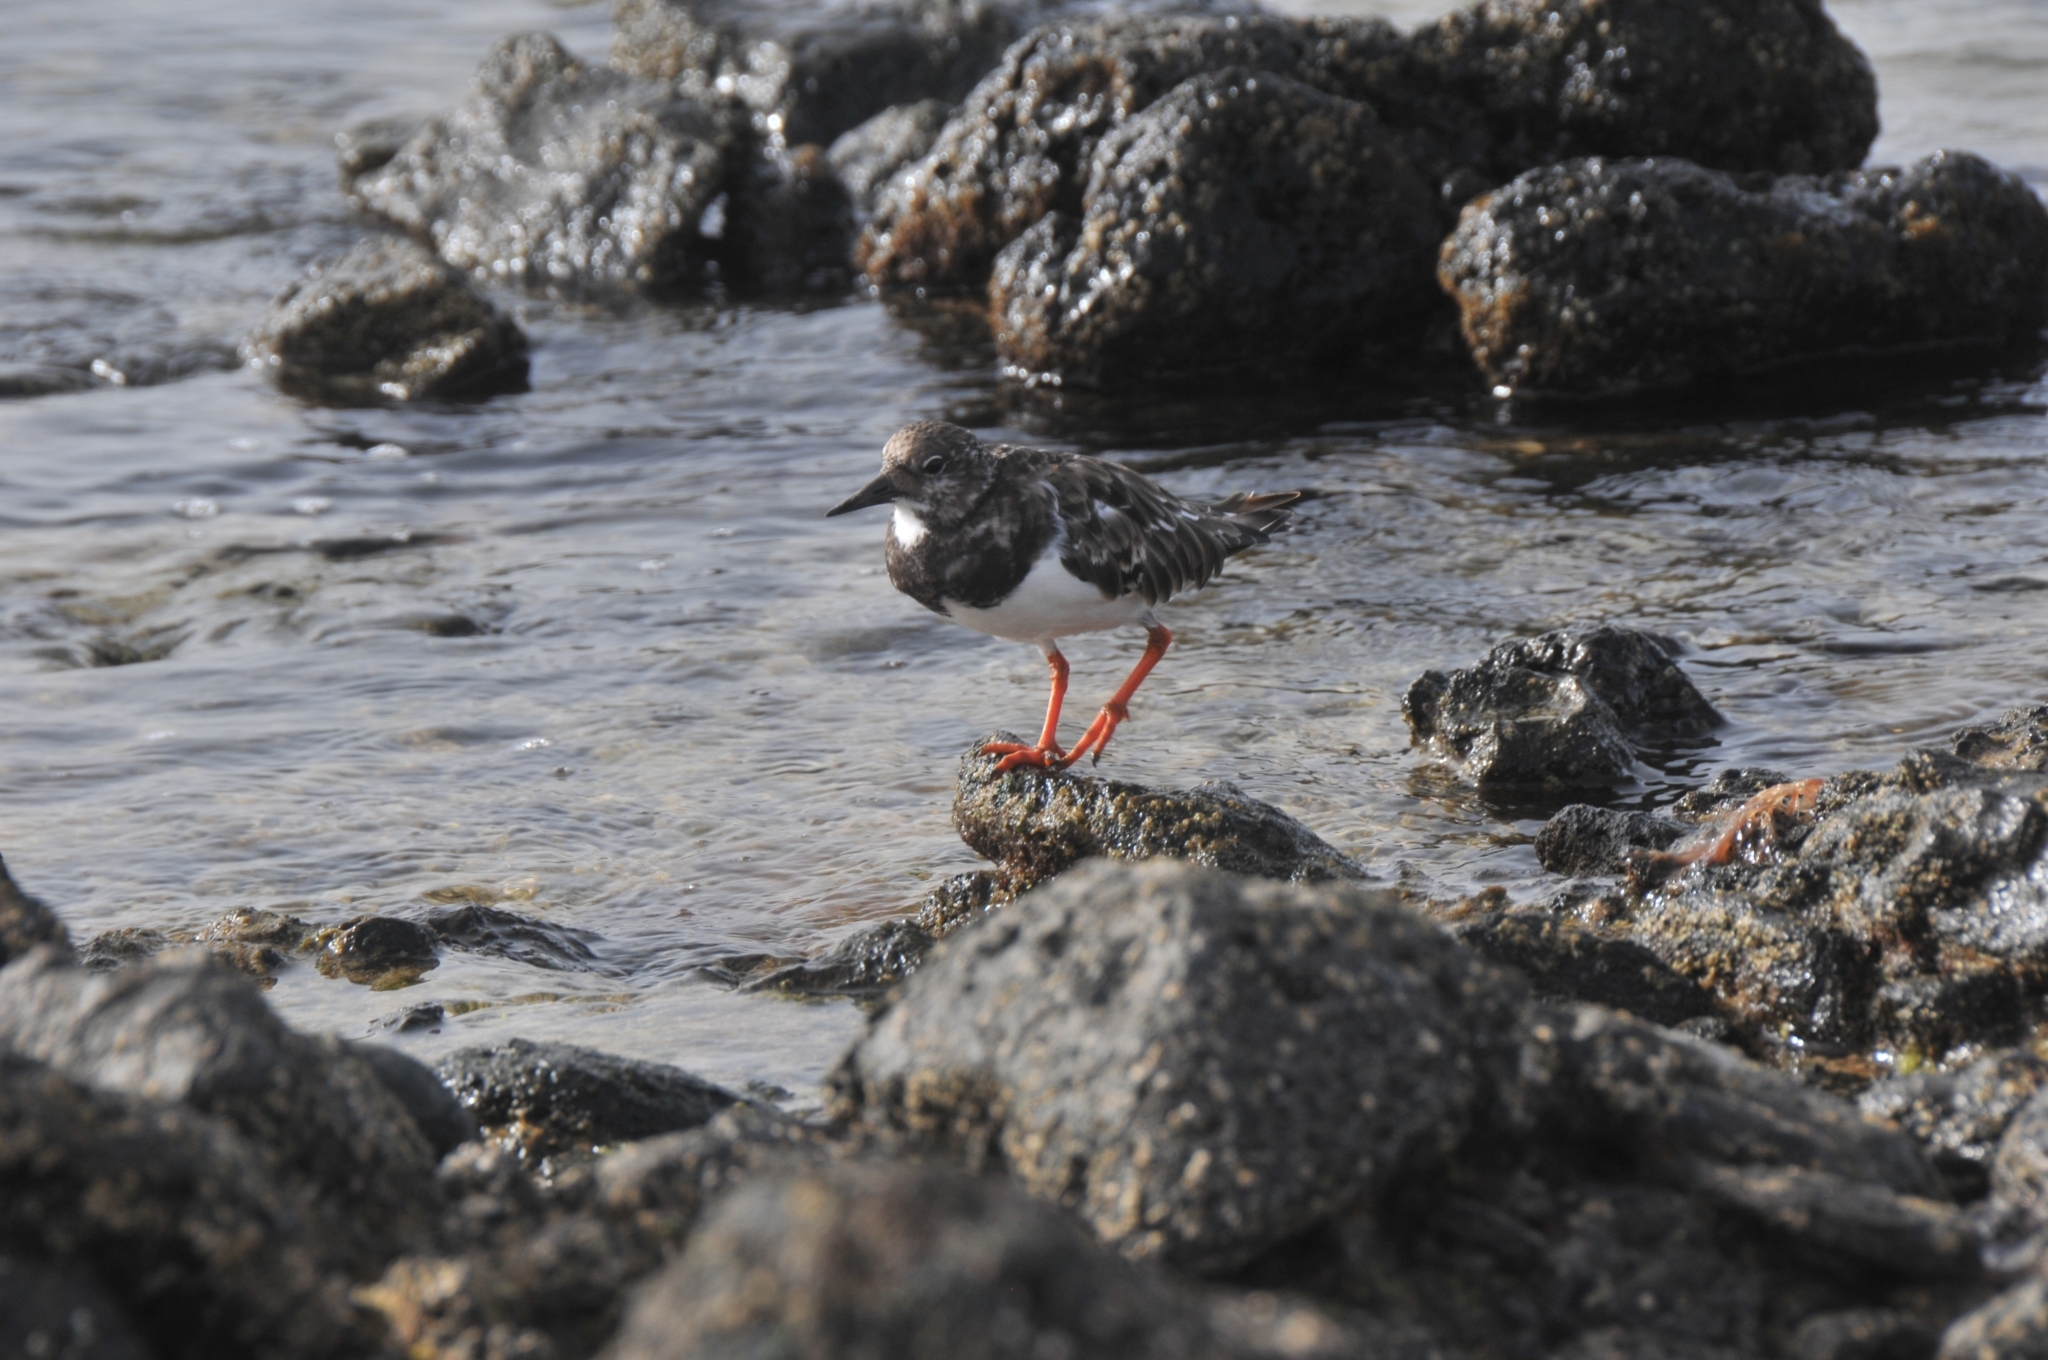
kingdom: Animalia
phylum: Chordata
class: Aves
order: Charadriiformes
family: Scolopacidae
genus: Arenaria
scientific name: Arenaria interpres
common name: Ruddy turnstone
